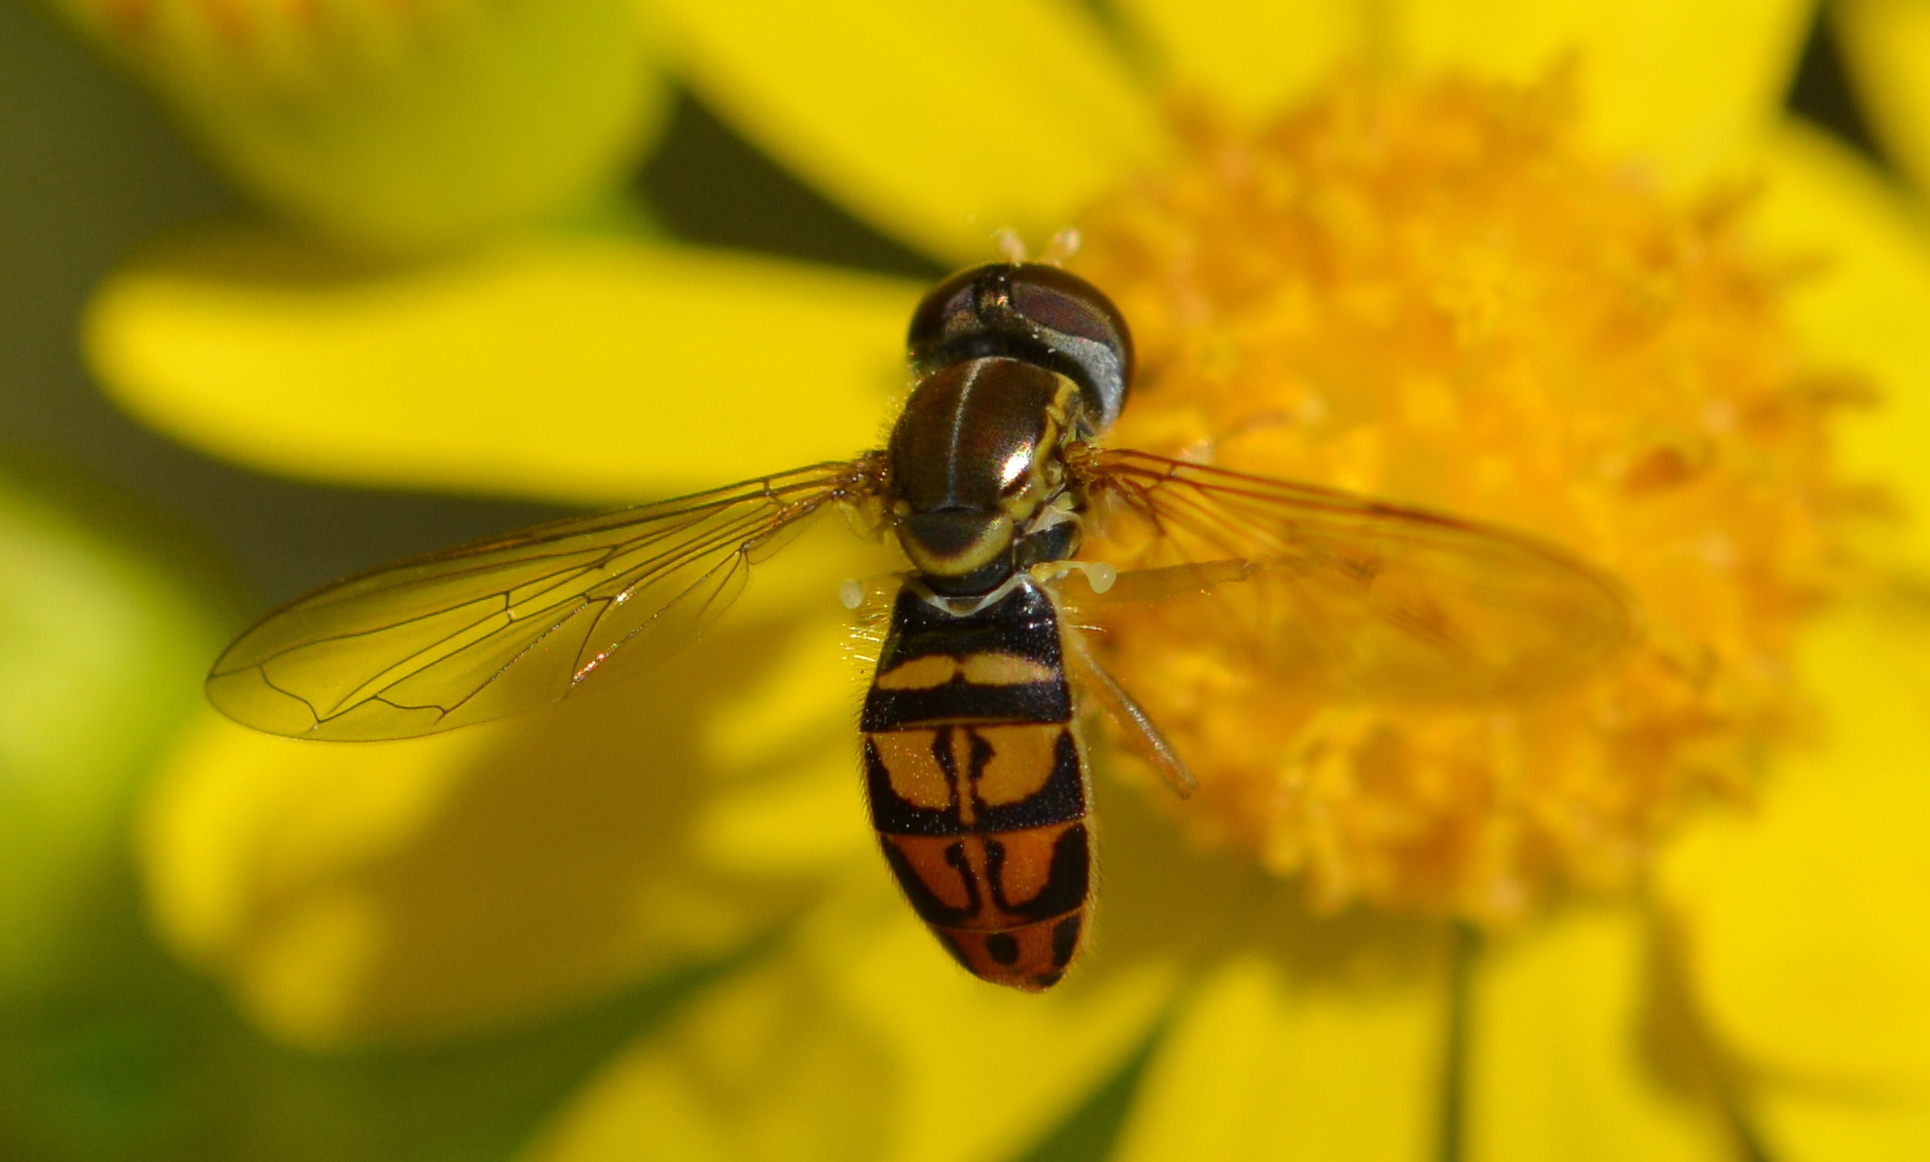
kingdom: Animalia
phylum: Arthropoda
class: Insecta
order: Diptera
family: Syrphidae
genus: Toxomerus
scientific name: Toxomerus marginatus
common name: Syrphid fly
